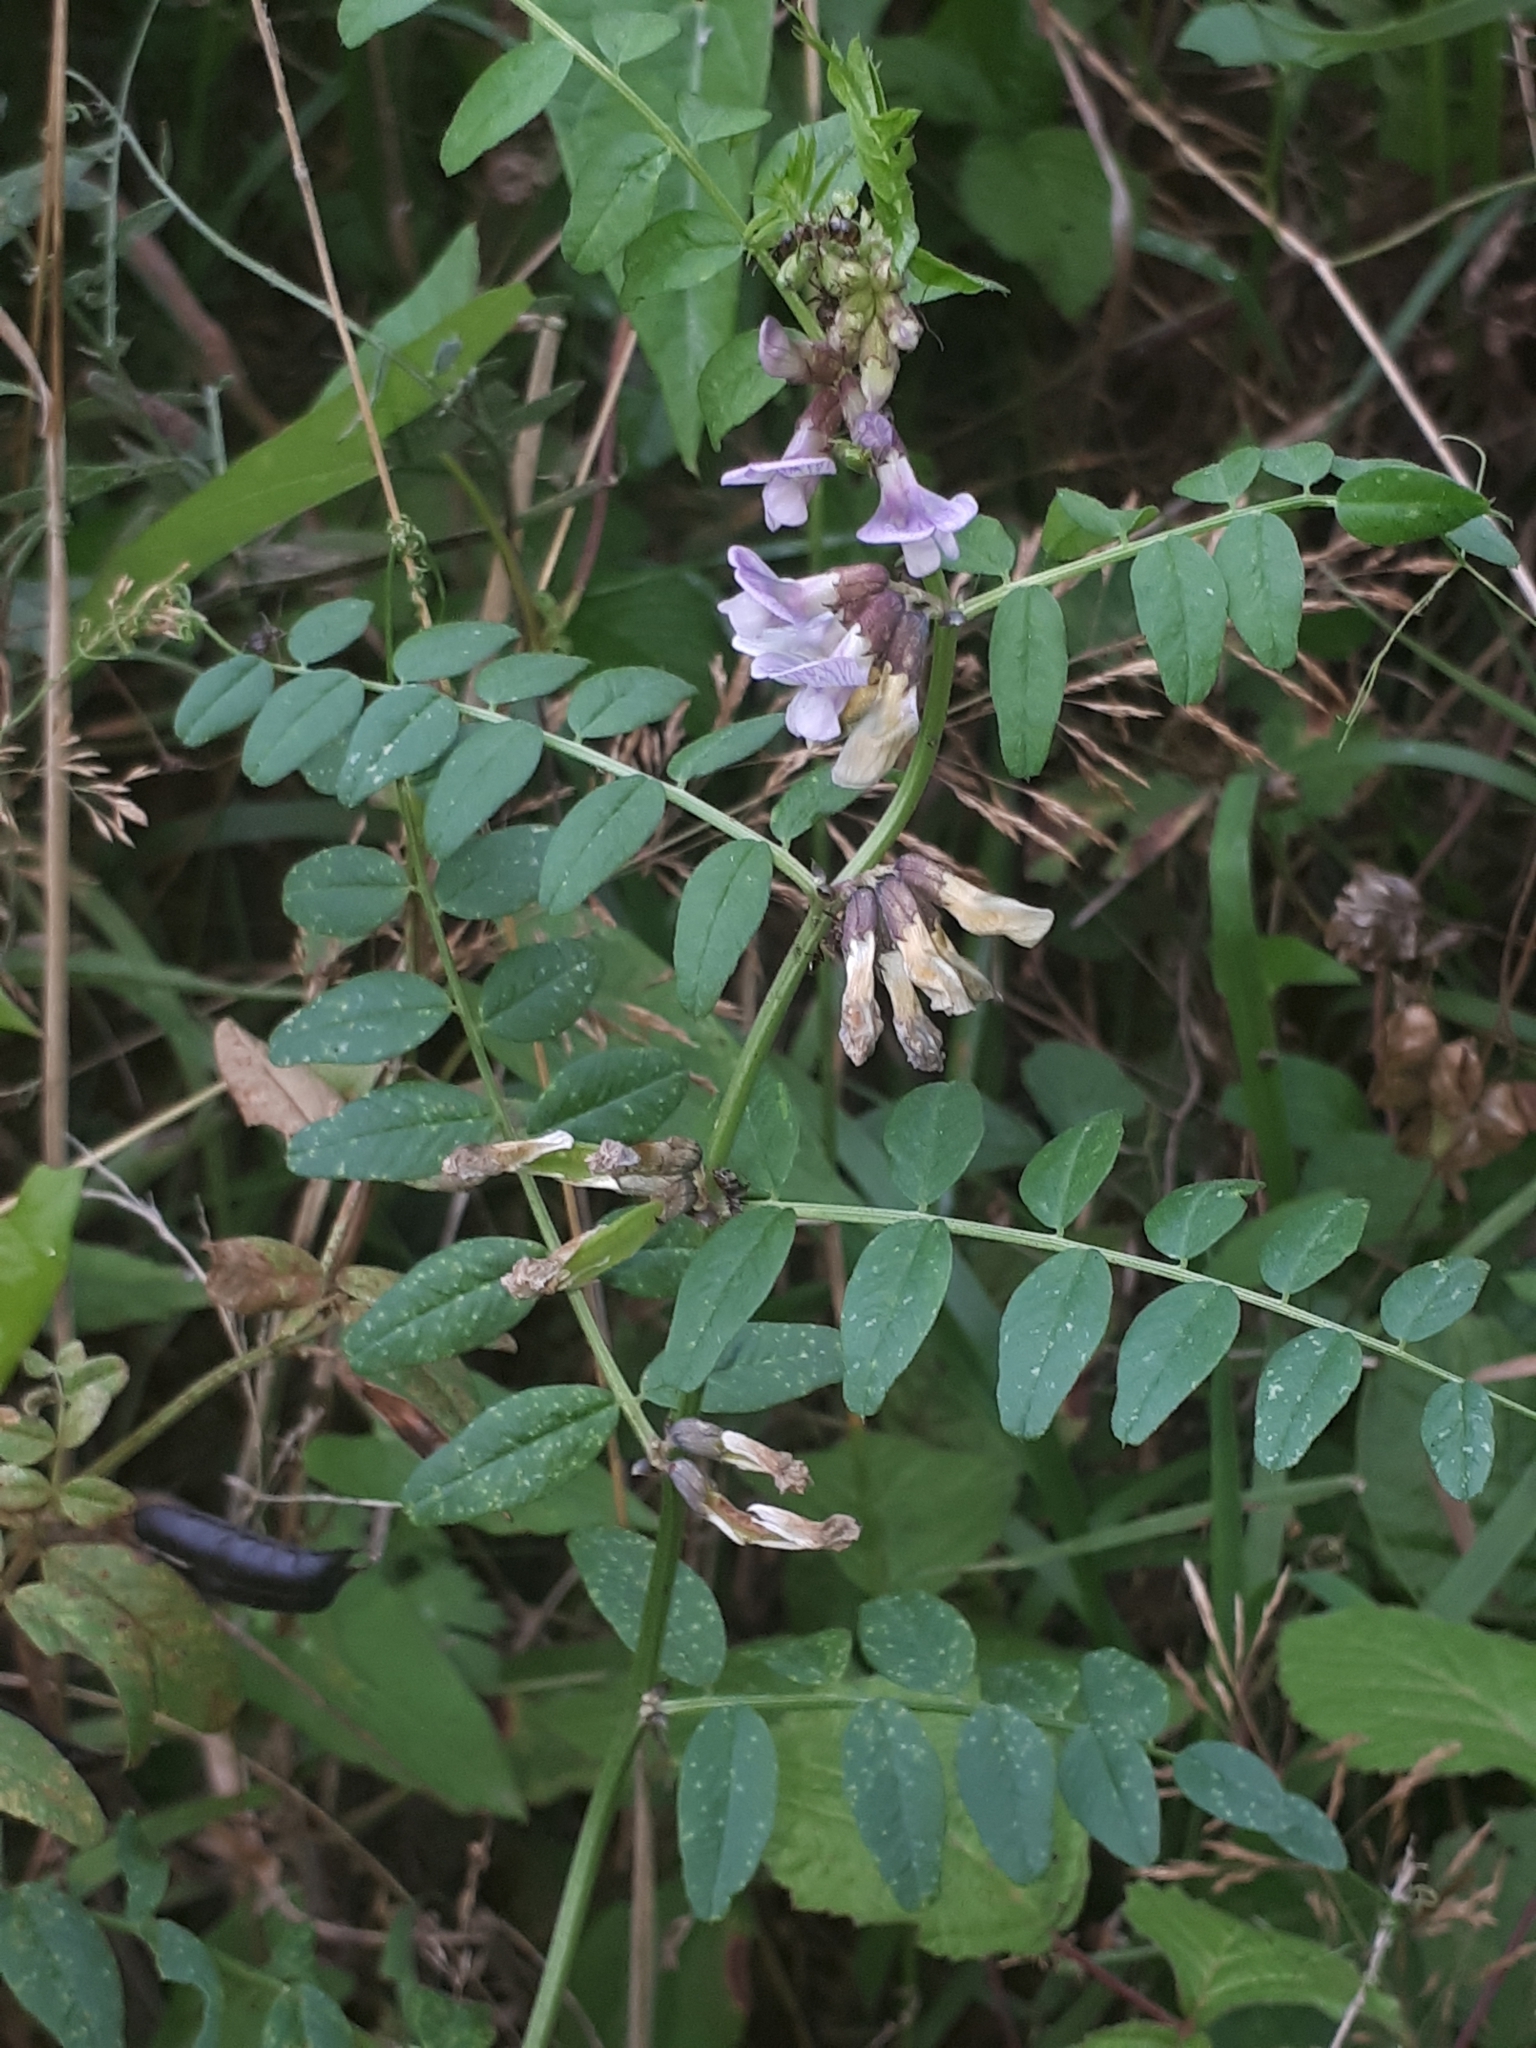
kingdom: Plantae
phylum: Tracheophyta
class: Magnoliopsida
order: Fabales
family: Fabaceae
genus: Vicia
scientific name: Vicia sepium
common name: Bush vetch
